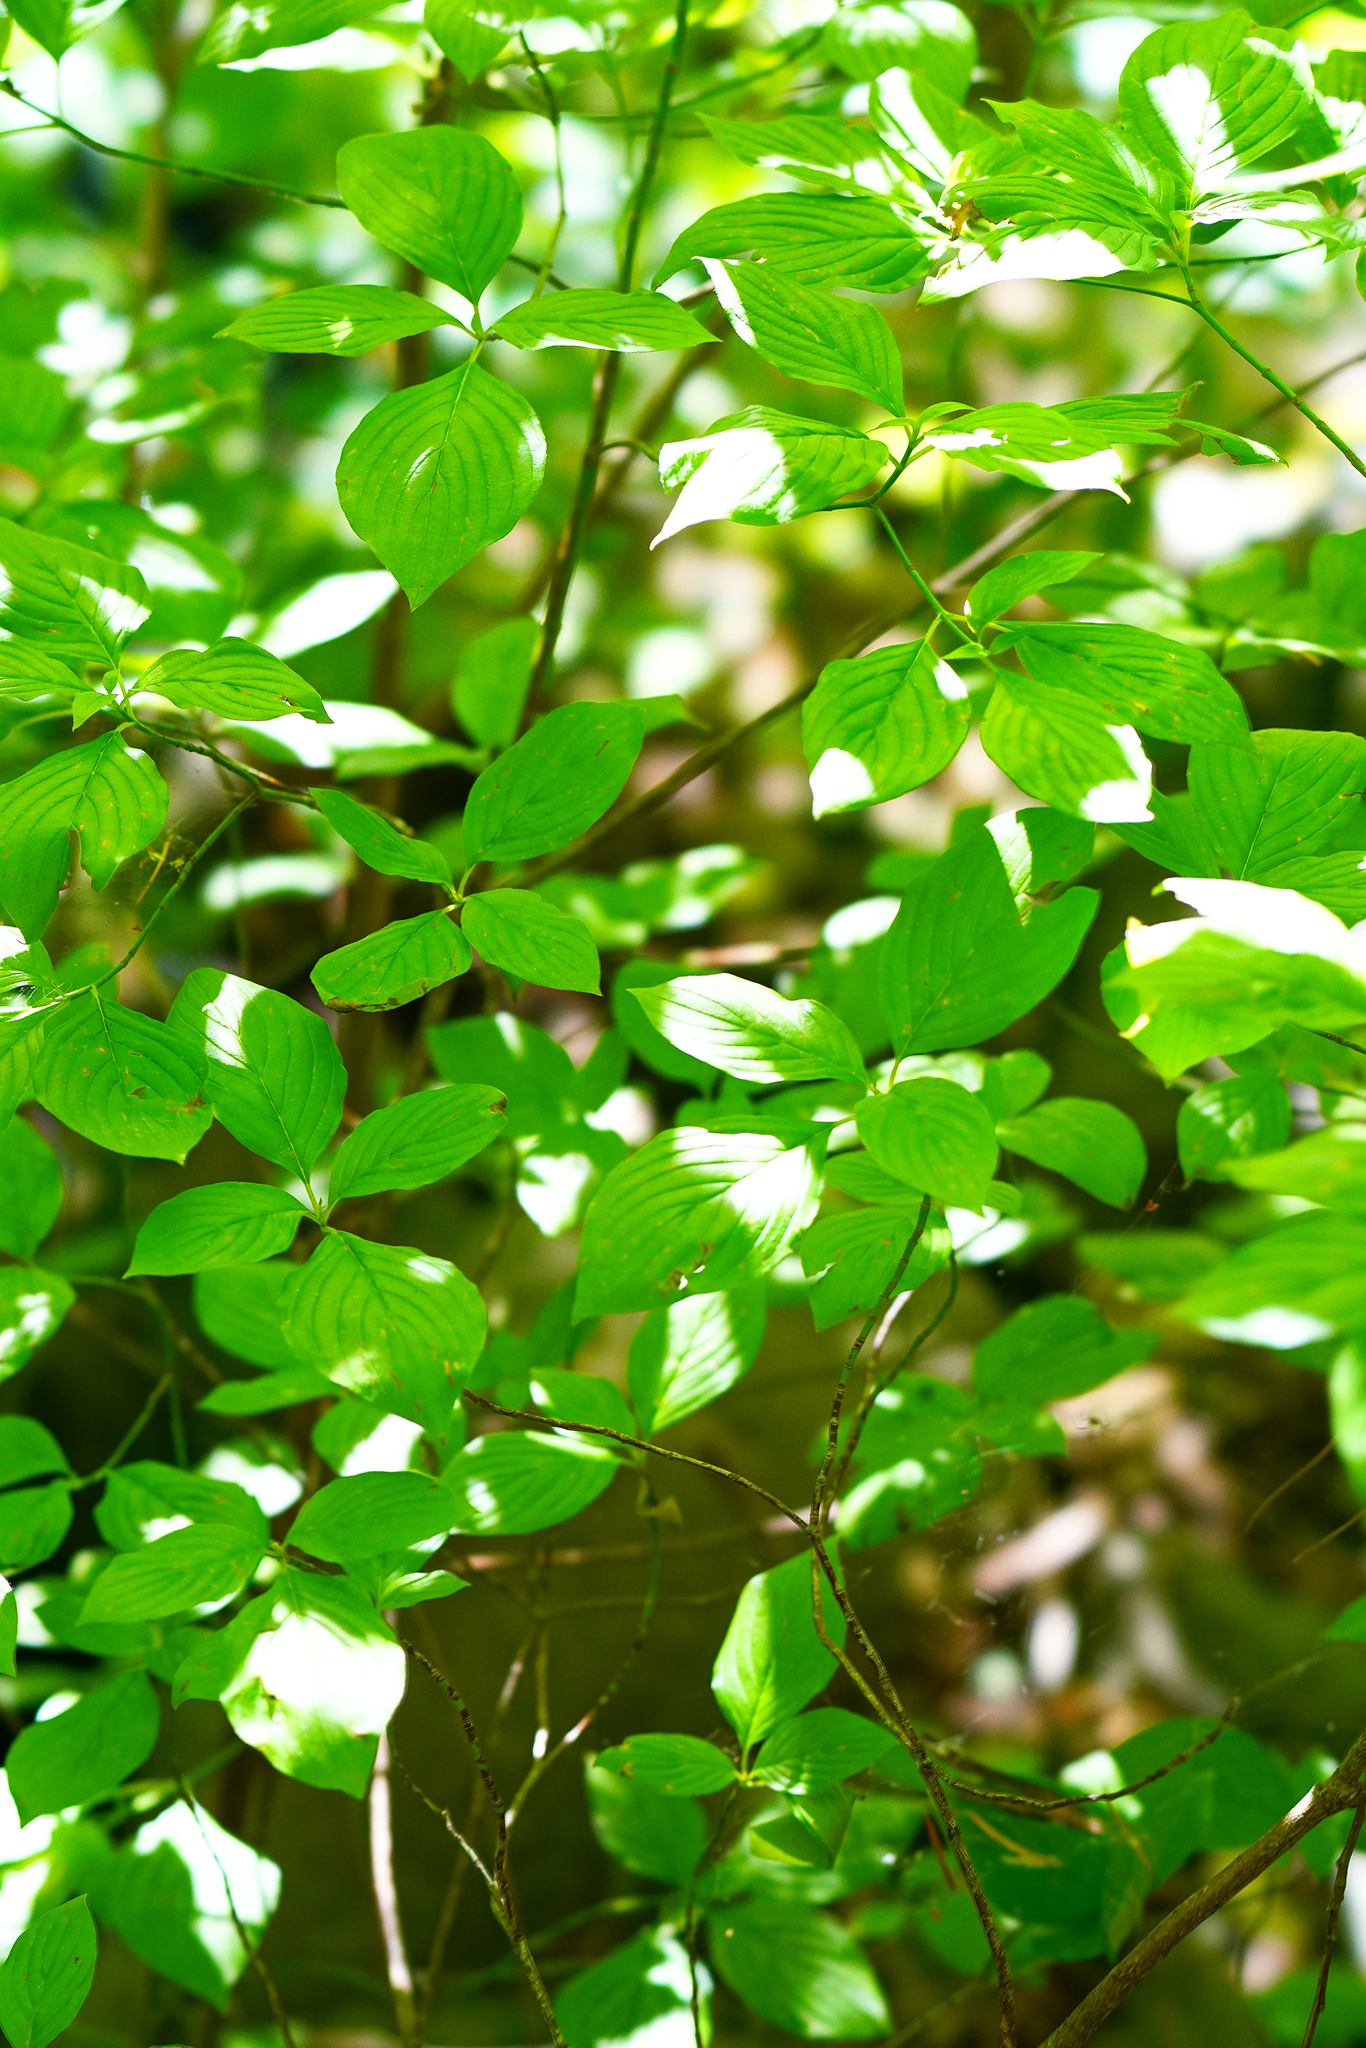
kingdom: Plantae
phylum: Tracheophyta
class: Magnoliopsida
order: Cornales
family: Cornaceae
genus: Cornus
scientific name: Cornus nuttallii
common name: Pacific dogwood
